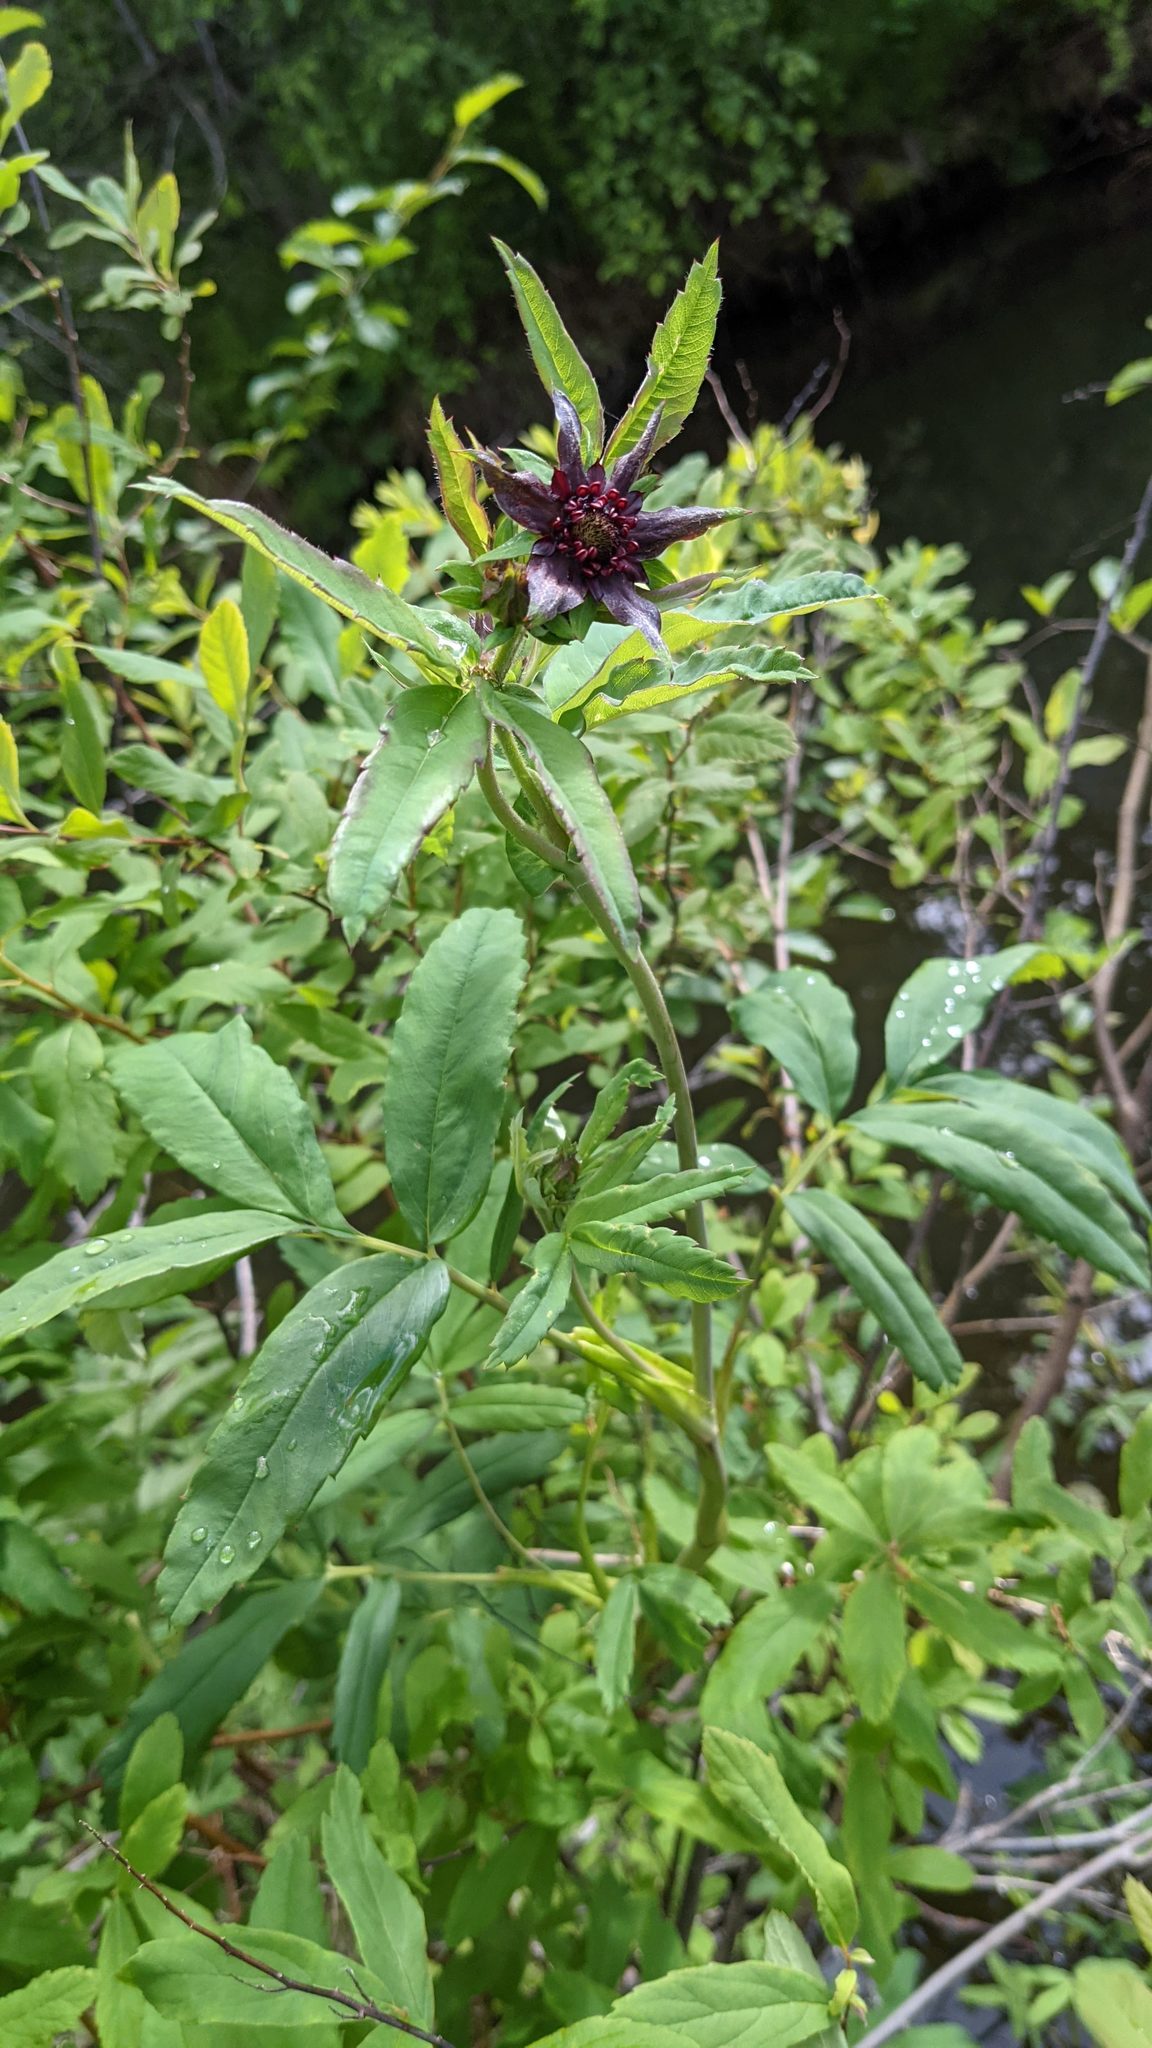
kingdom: Plantae
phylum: Tracheophyta
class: Magnoliopsida
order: Rosales
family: Rosaceae
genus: Comarum
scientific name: Comarum palustre
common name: Marsh cinquefoil
